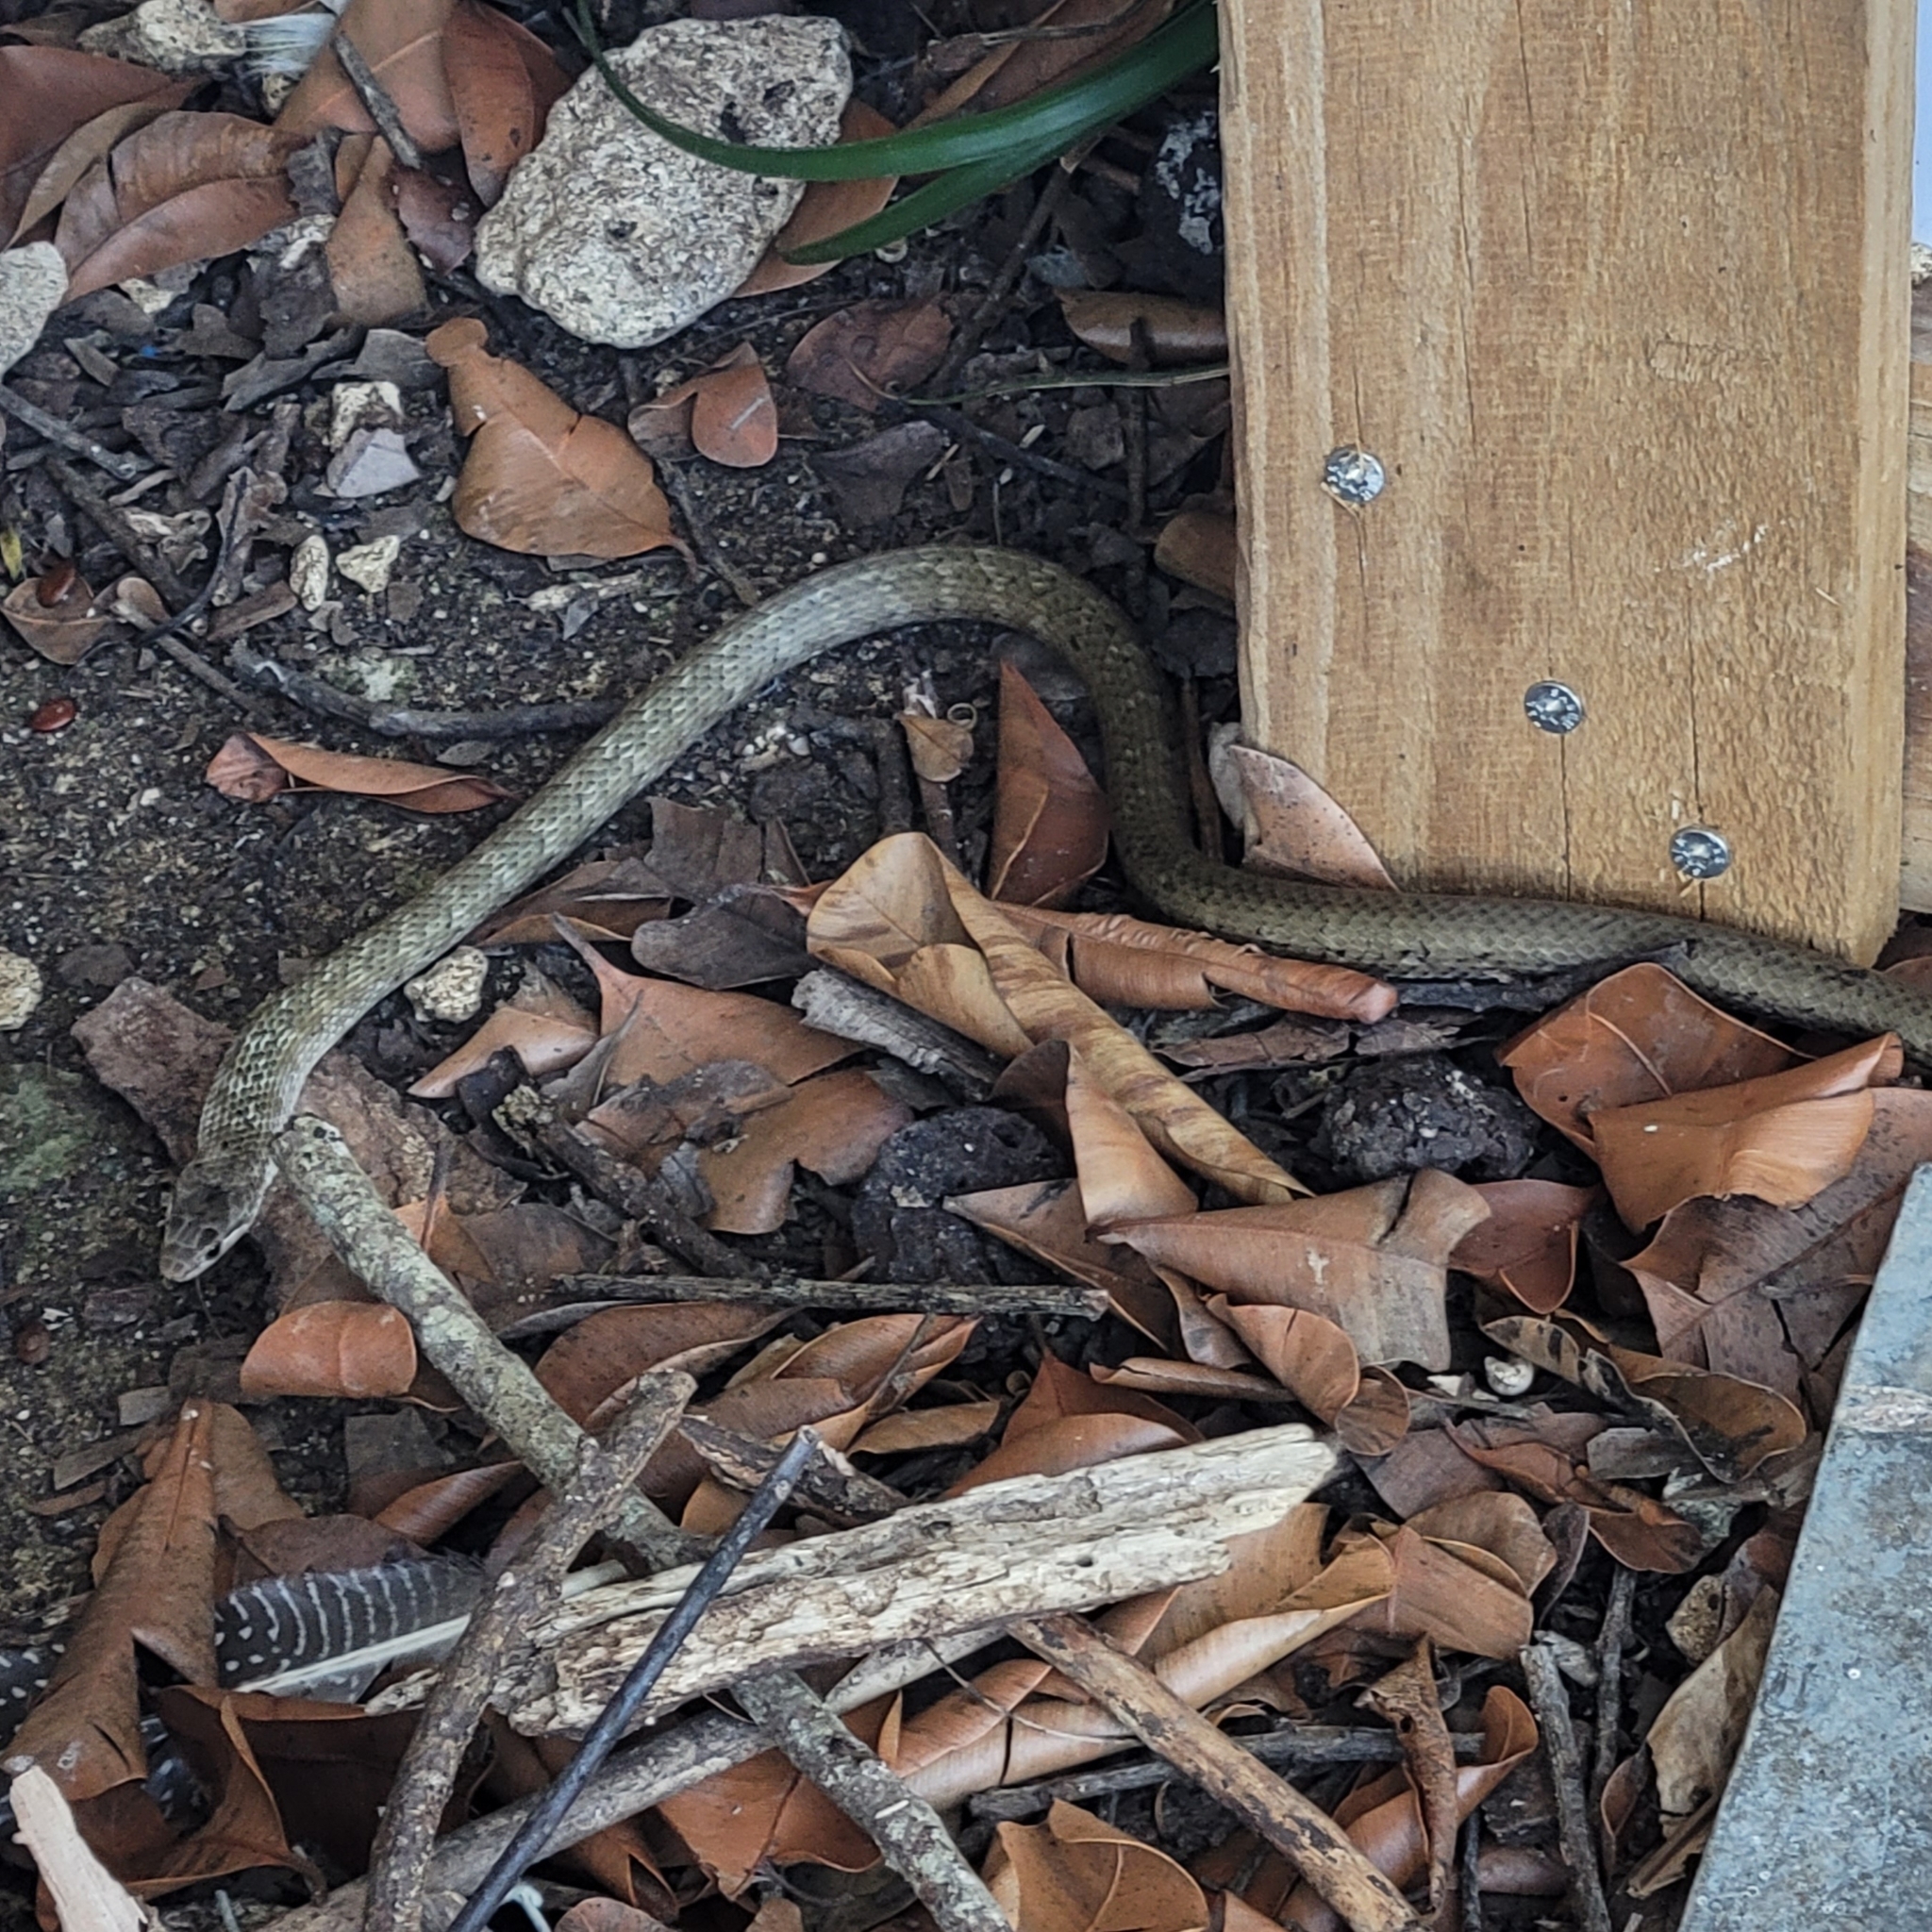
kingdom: Animalia
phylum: Chordata
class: Squamata
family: Colubridae
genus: Borikenophis
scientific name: Borikenophis portoricensis
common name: Puerto rican racer
